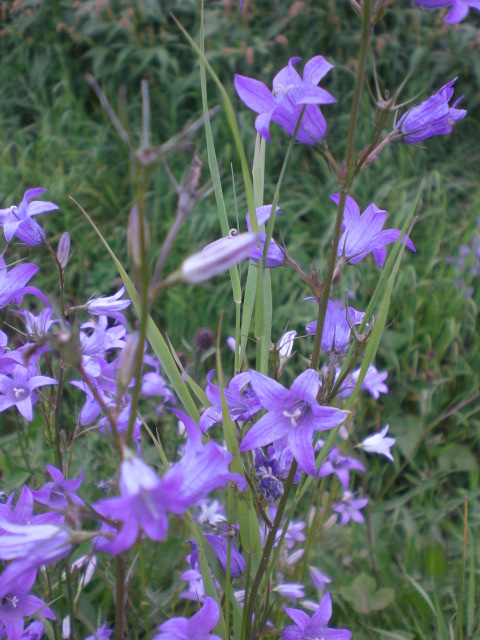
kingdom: Plantae
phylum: Tracheophyta
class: Magnoliopsida
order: Asterales
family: Campanulaceae
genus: Campanula
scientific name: Campanula rapunculus
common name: Rampion bellflower
